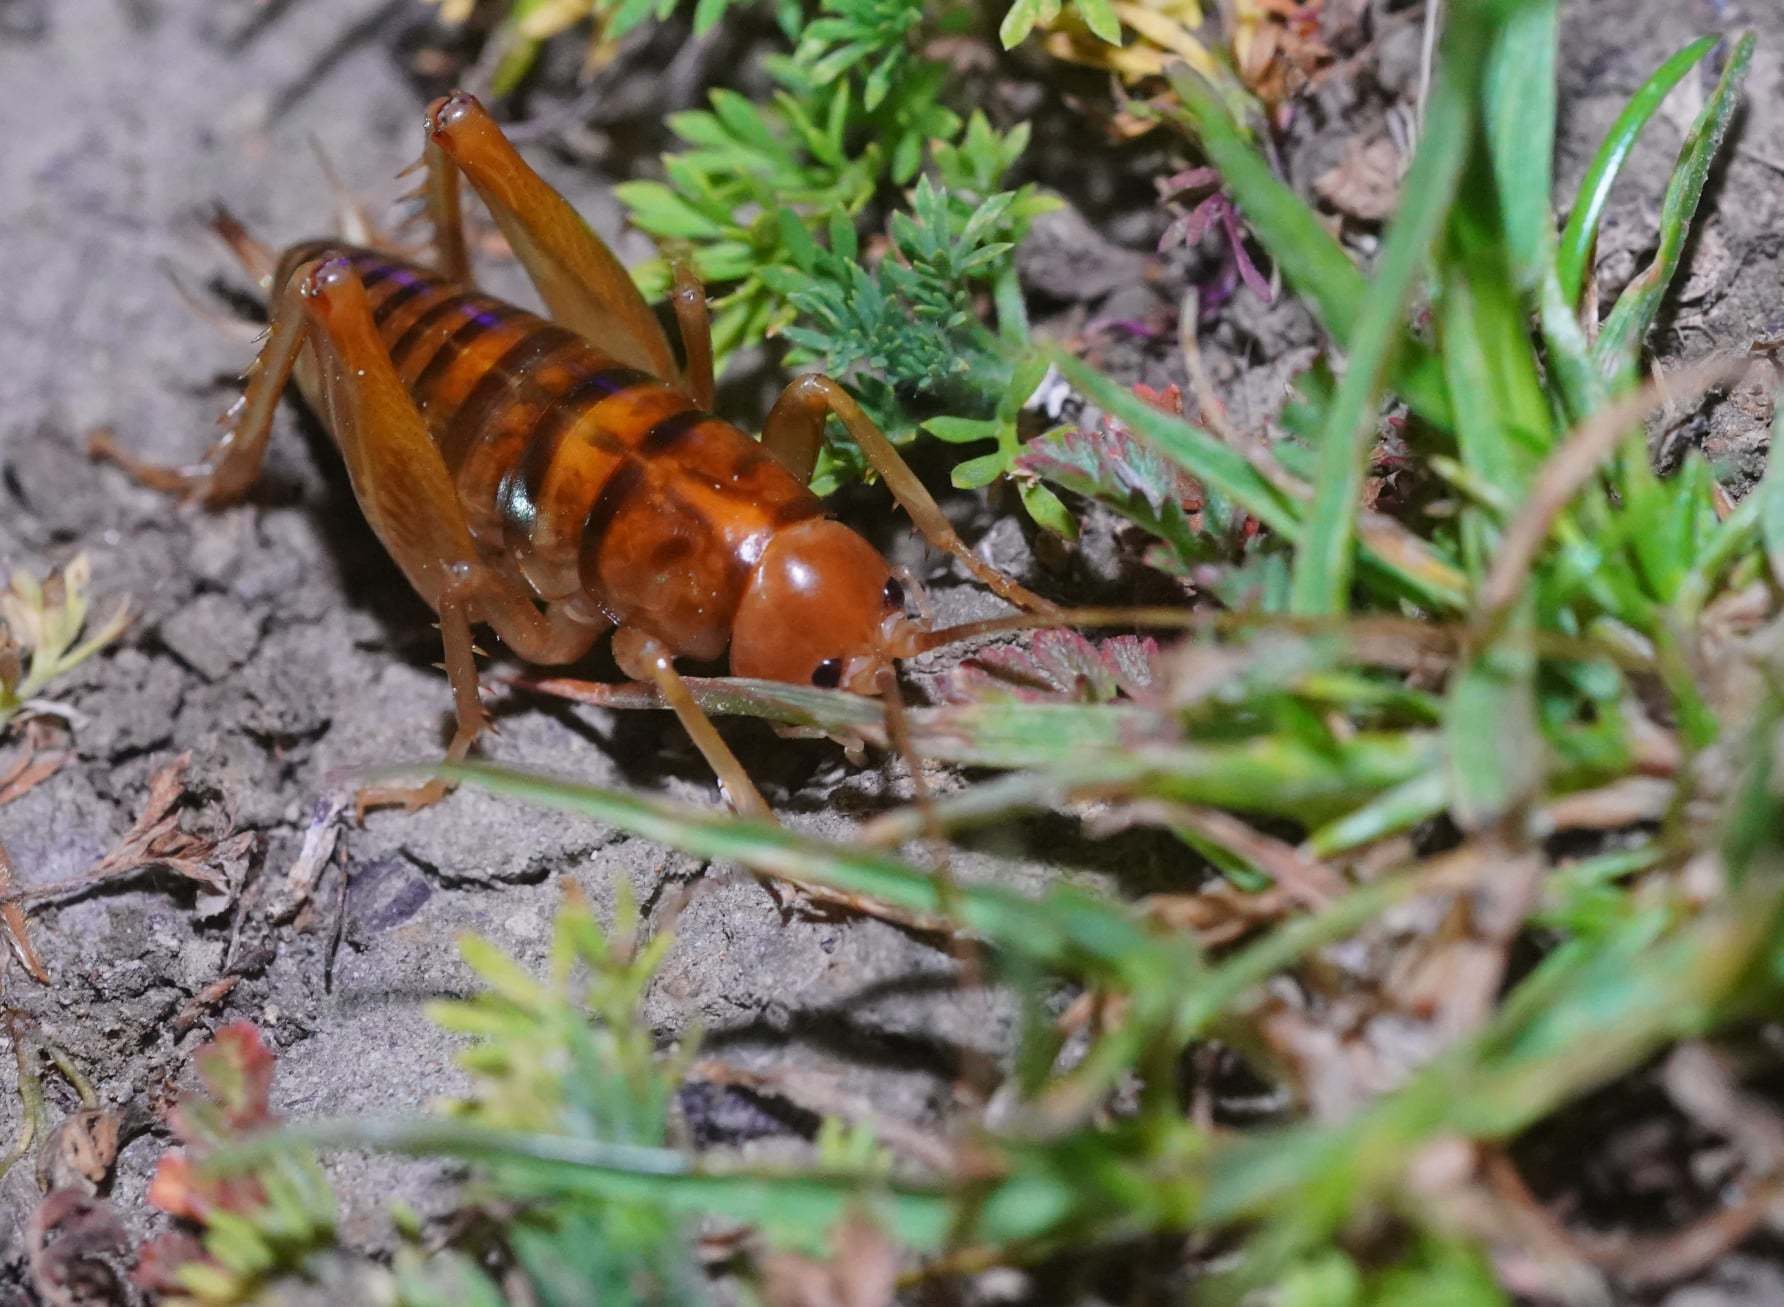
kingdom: Animalia
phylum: Arthropoda
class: Insecta
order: Orthoptera
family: Rhaphidophoridae
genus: Ceuthophilus
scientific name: Ceuthophilus californianus
